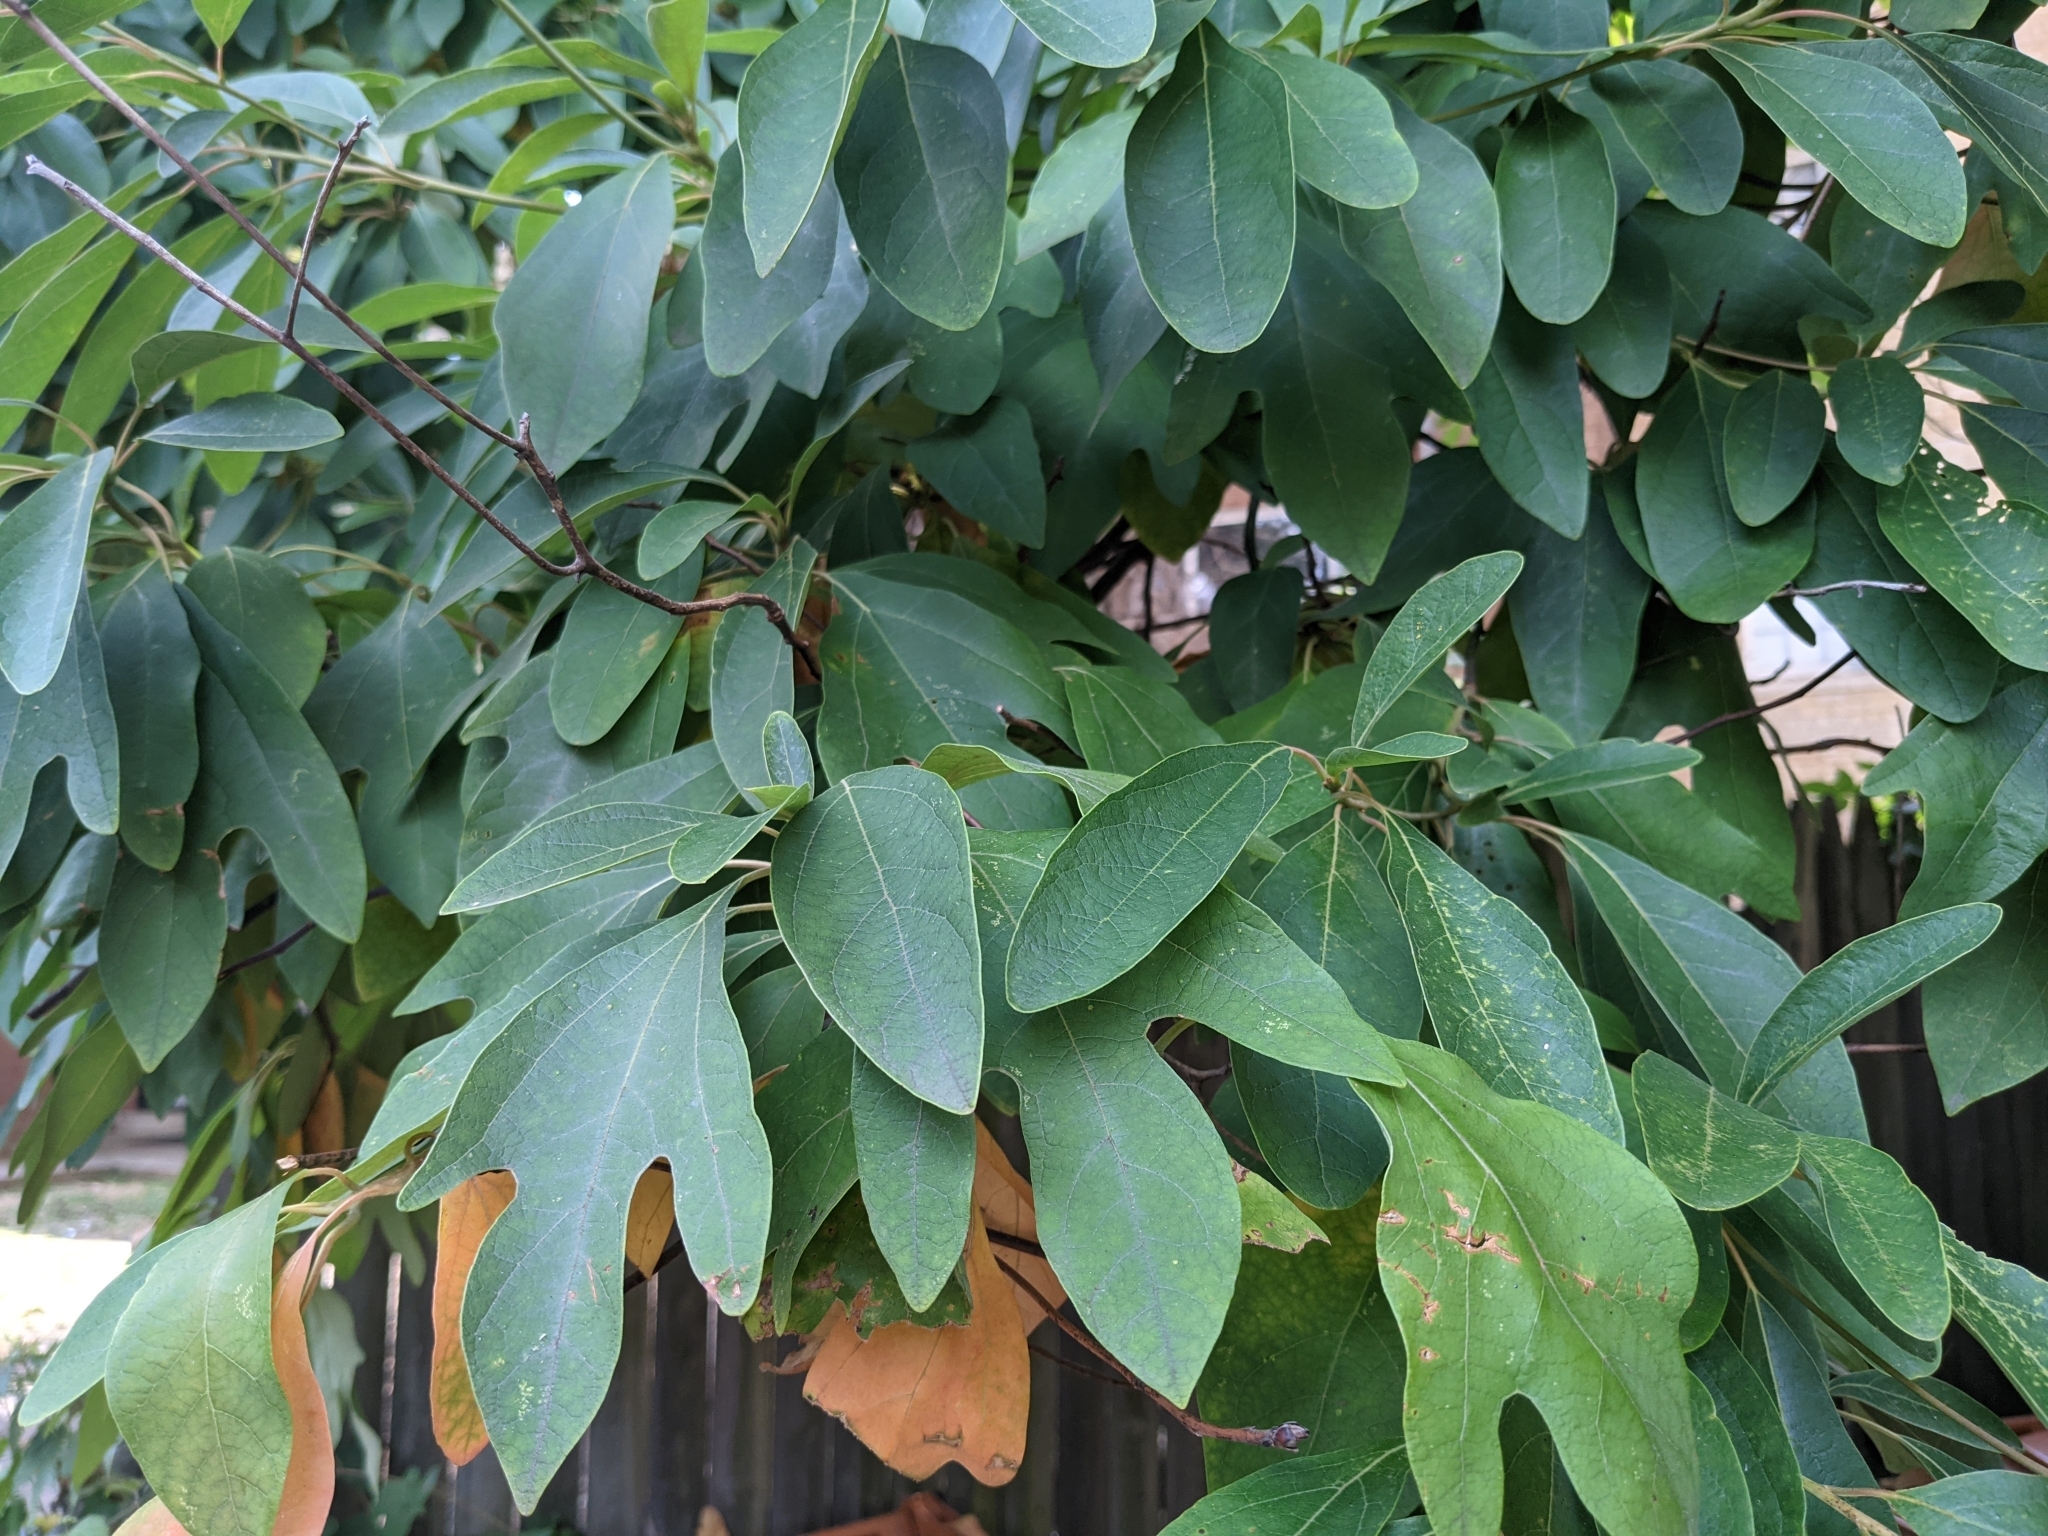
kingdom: Plantae
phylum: Tracheophyta
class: Magnoliopsida
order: Laurales
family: Lauraceae
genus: Sassafras
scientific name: Sassafras albidum
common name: Sassafras
